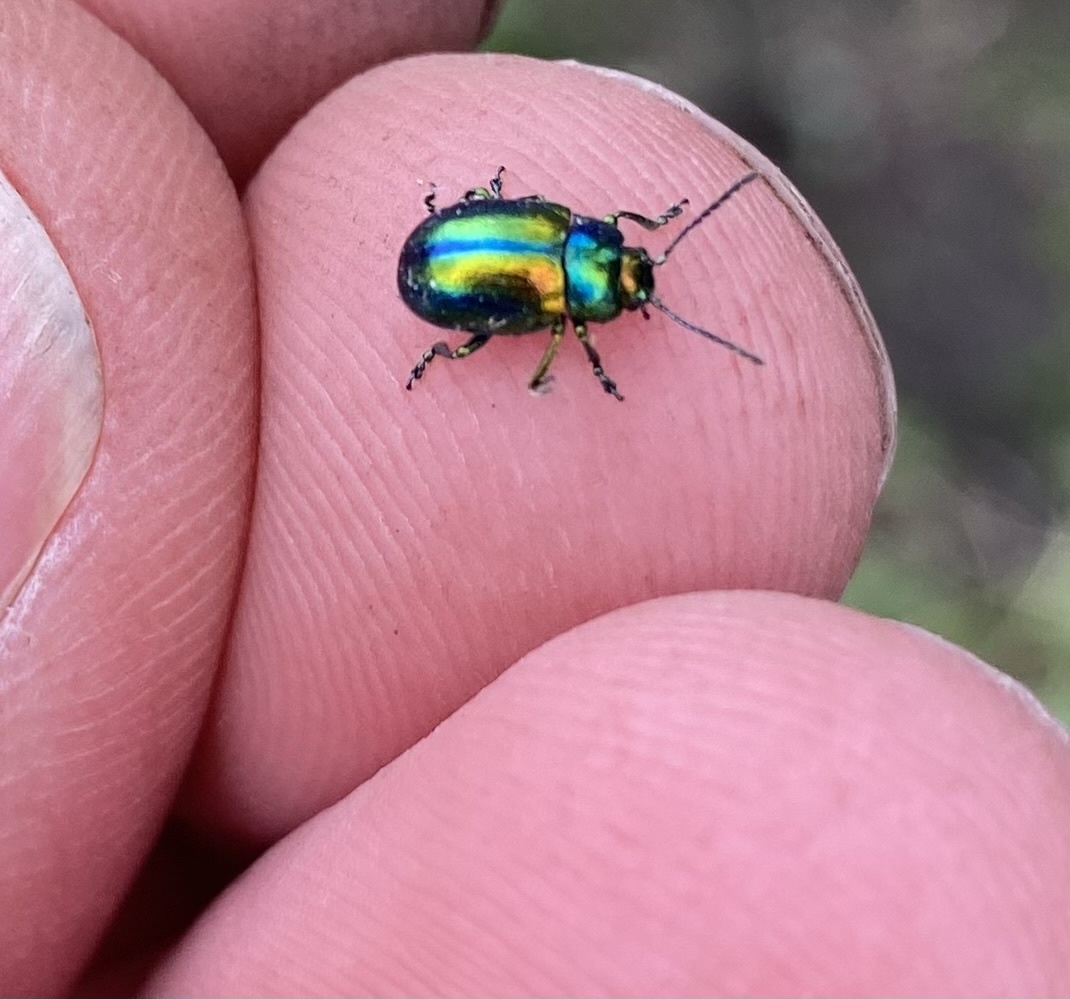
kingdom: Animalia
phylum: Arthropoda
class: Insecta
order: Coleoptera
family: Chrysomelidae
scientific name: Chrysomelidae
